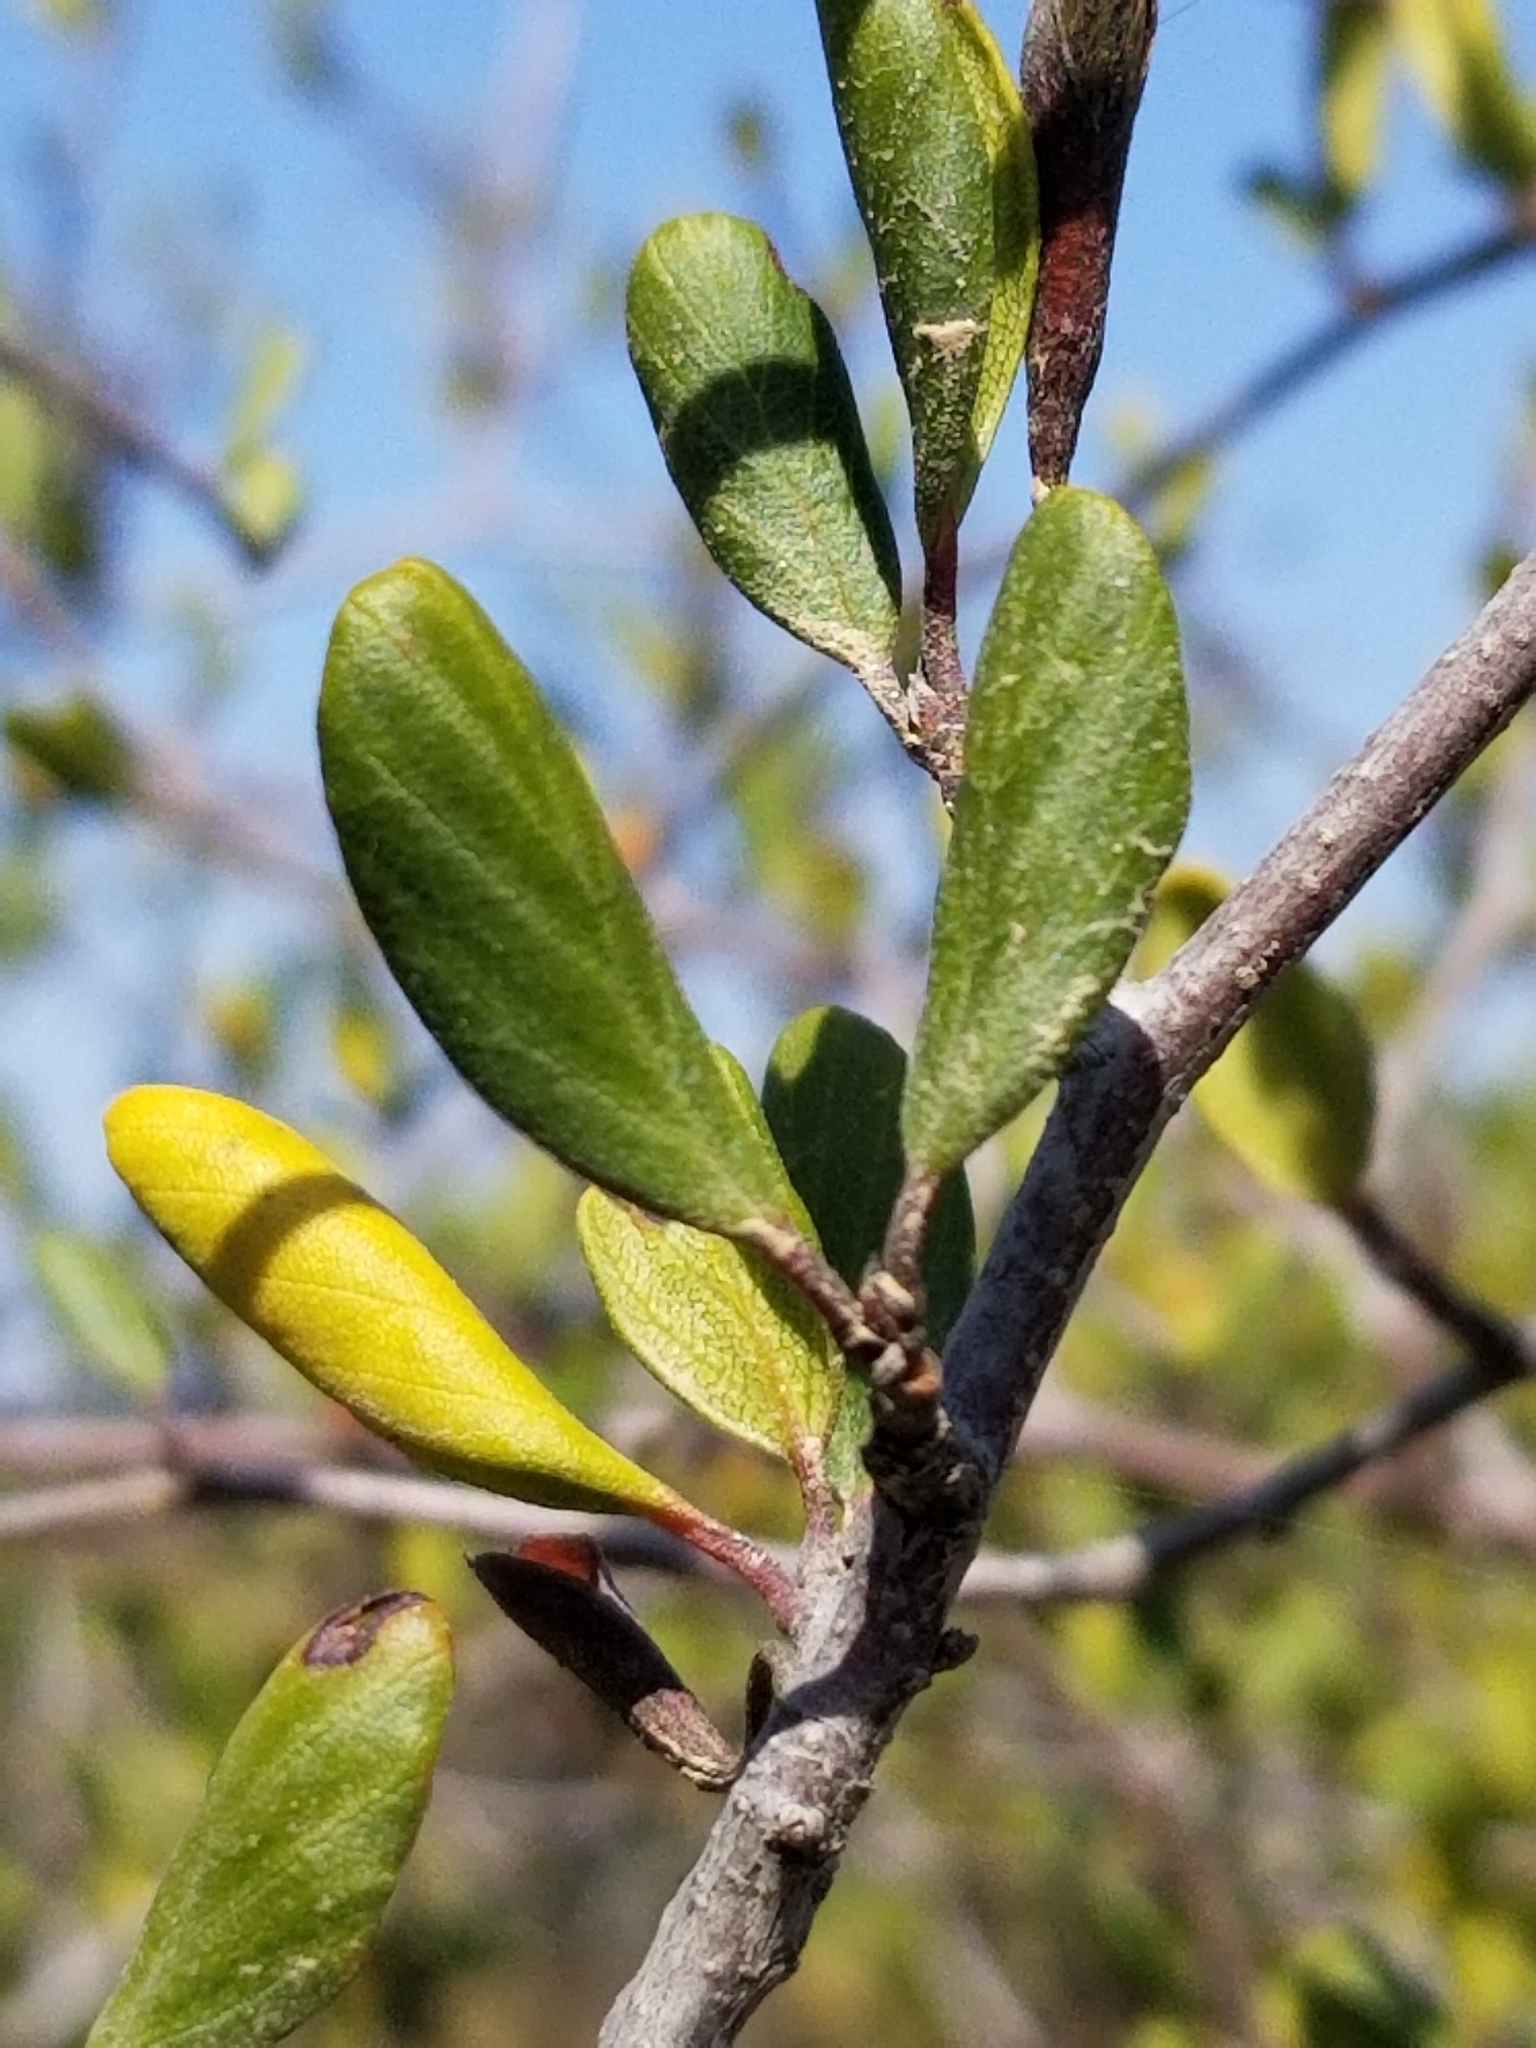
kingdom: Plantae
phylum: Tracheophyta
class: Magnoliopsida
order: Rosales
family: Rosaceae
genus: Cercocarpus
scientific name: Cercocarpus montanus
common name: Alder-leaf cercocarpus
